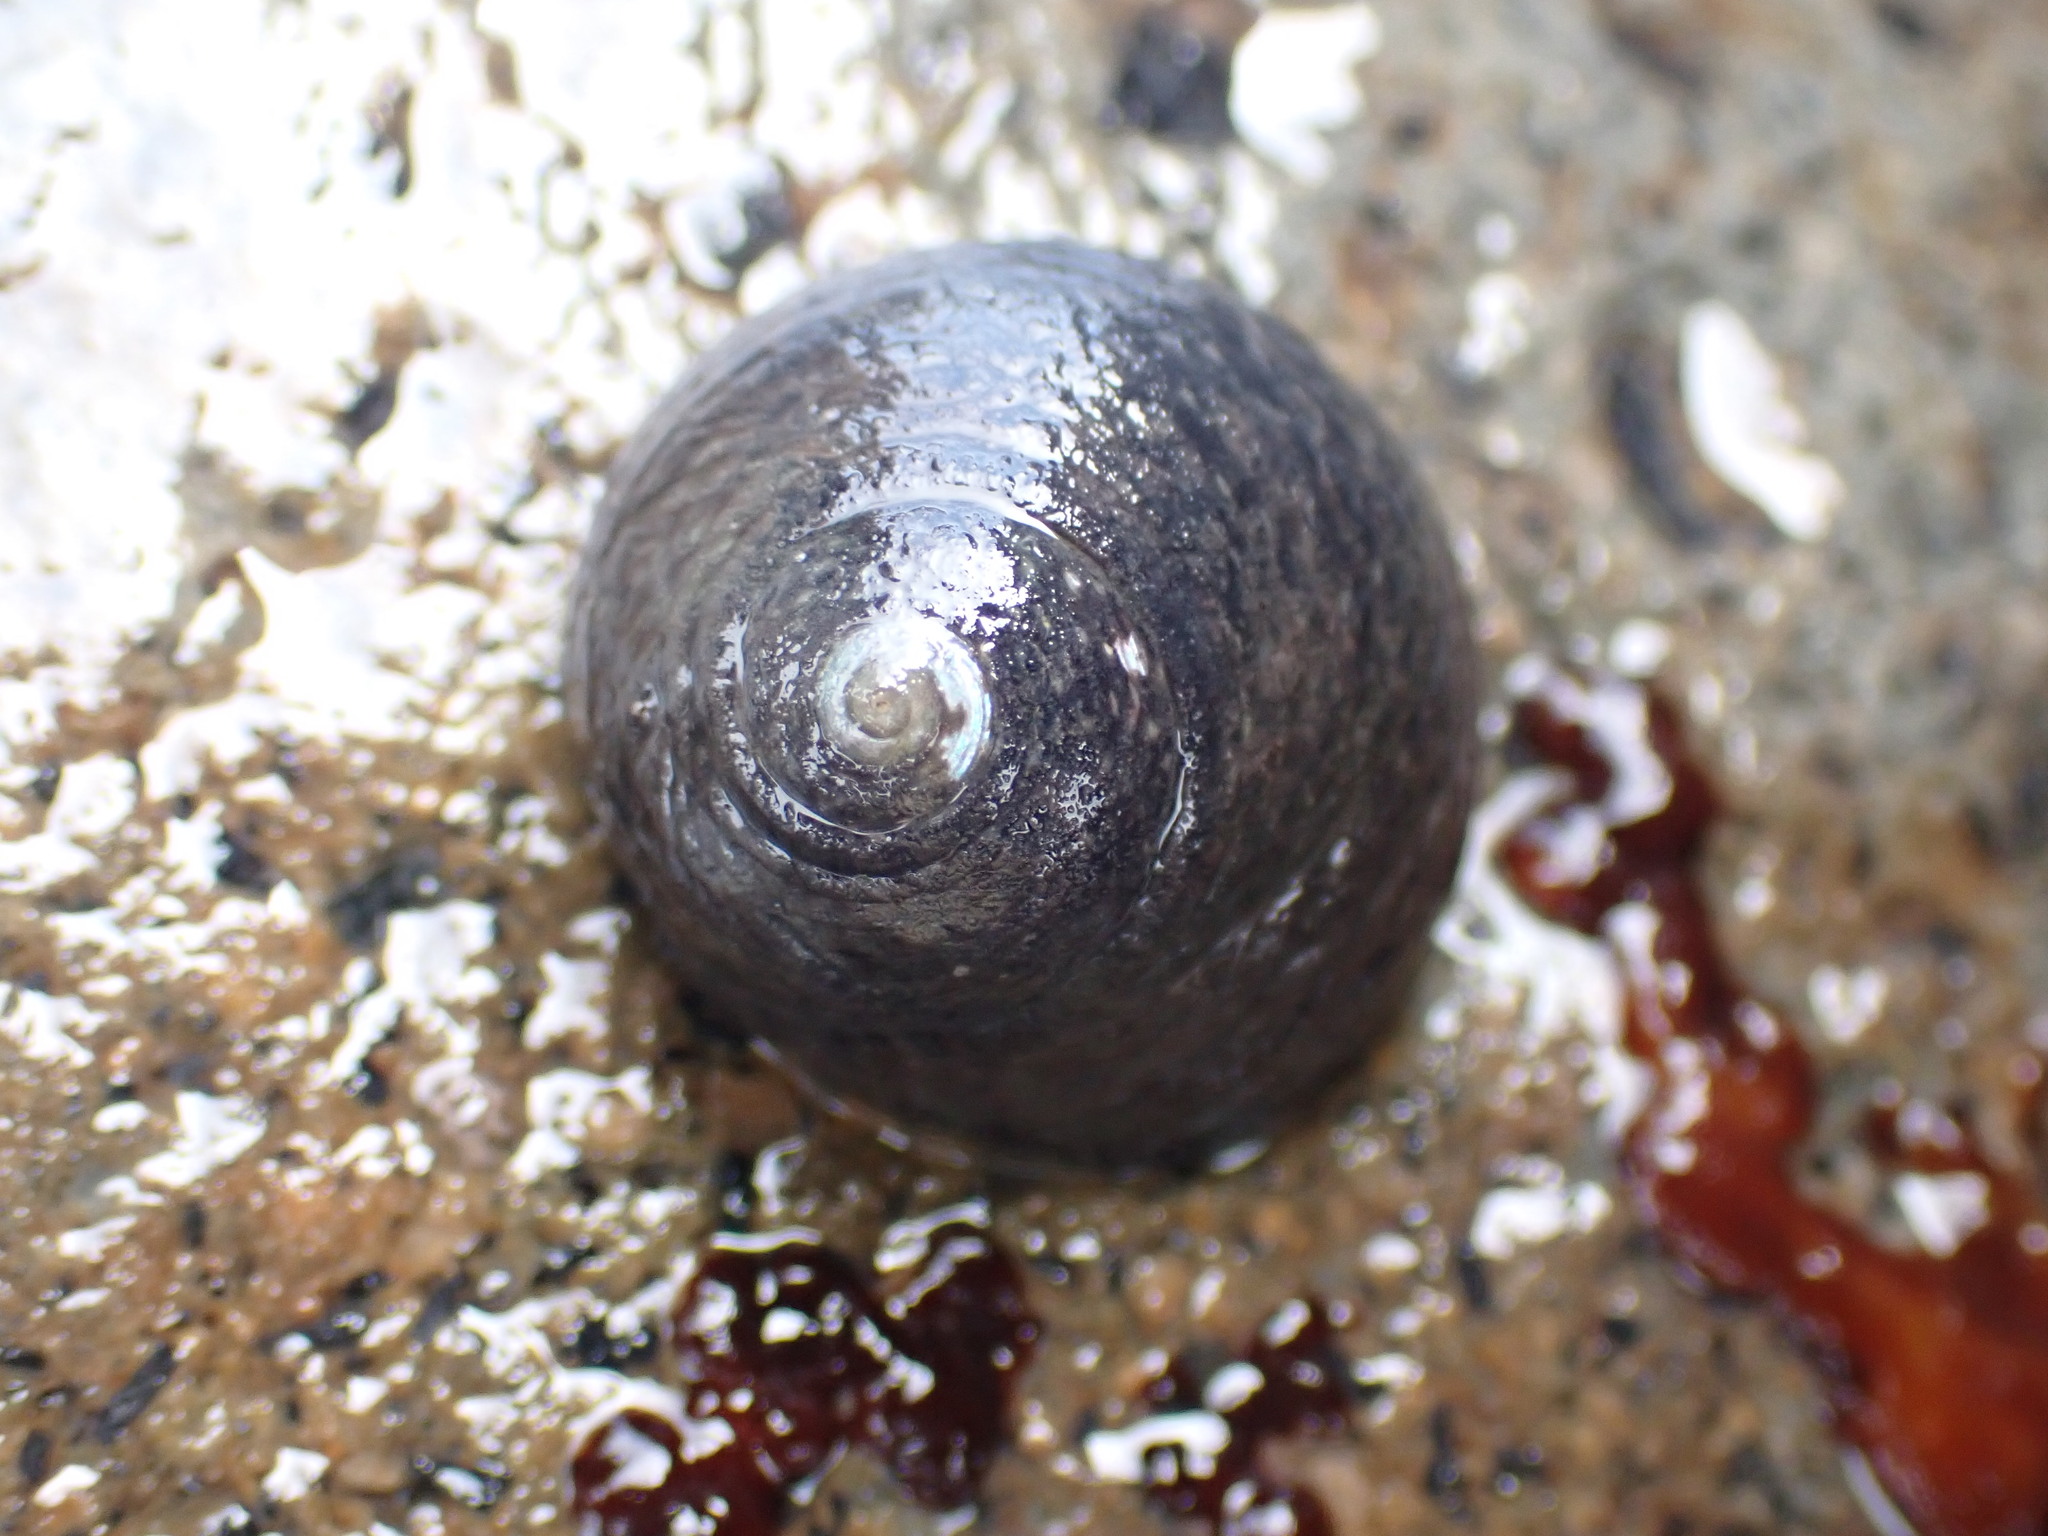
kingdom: Animalia
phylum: Mollusca
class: Gastropoda
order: Trochida
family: Trochidae
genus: Diloma
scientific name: Diloma zelandicum
